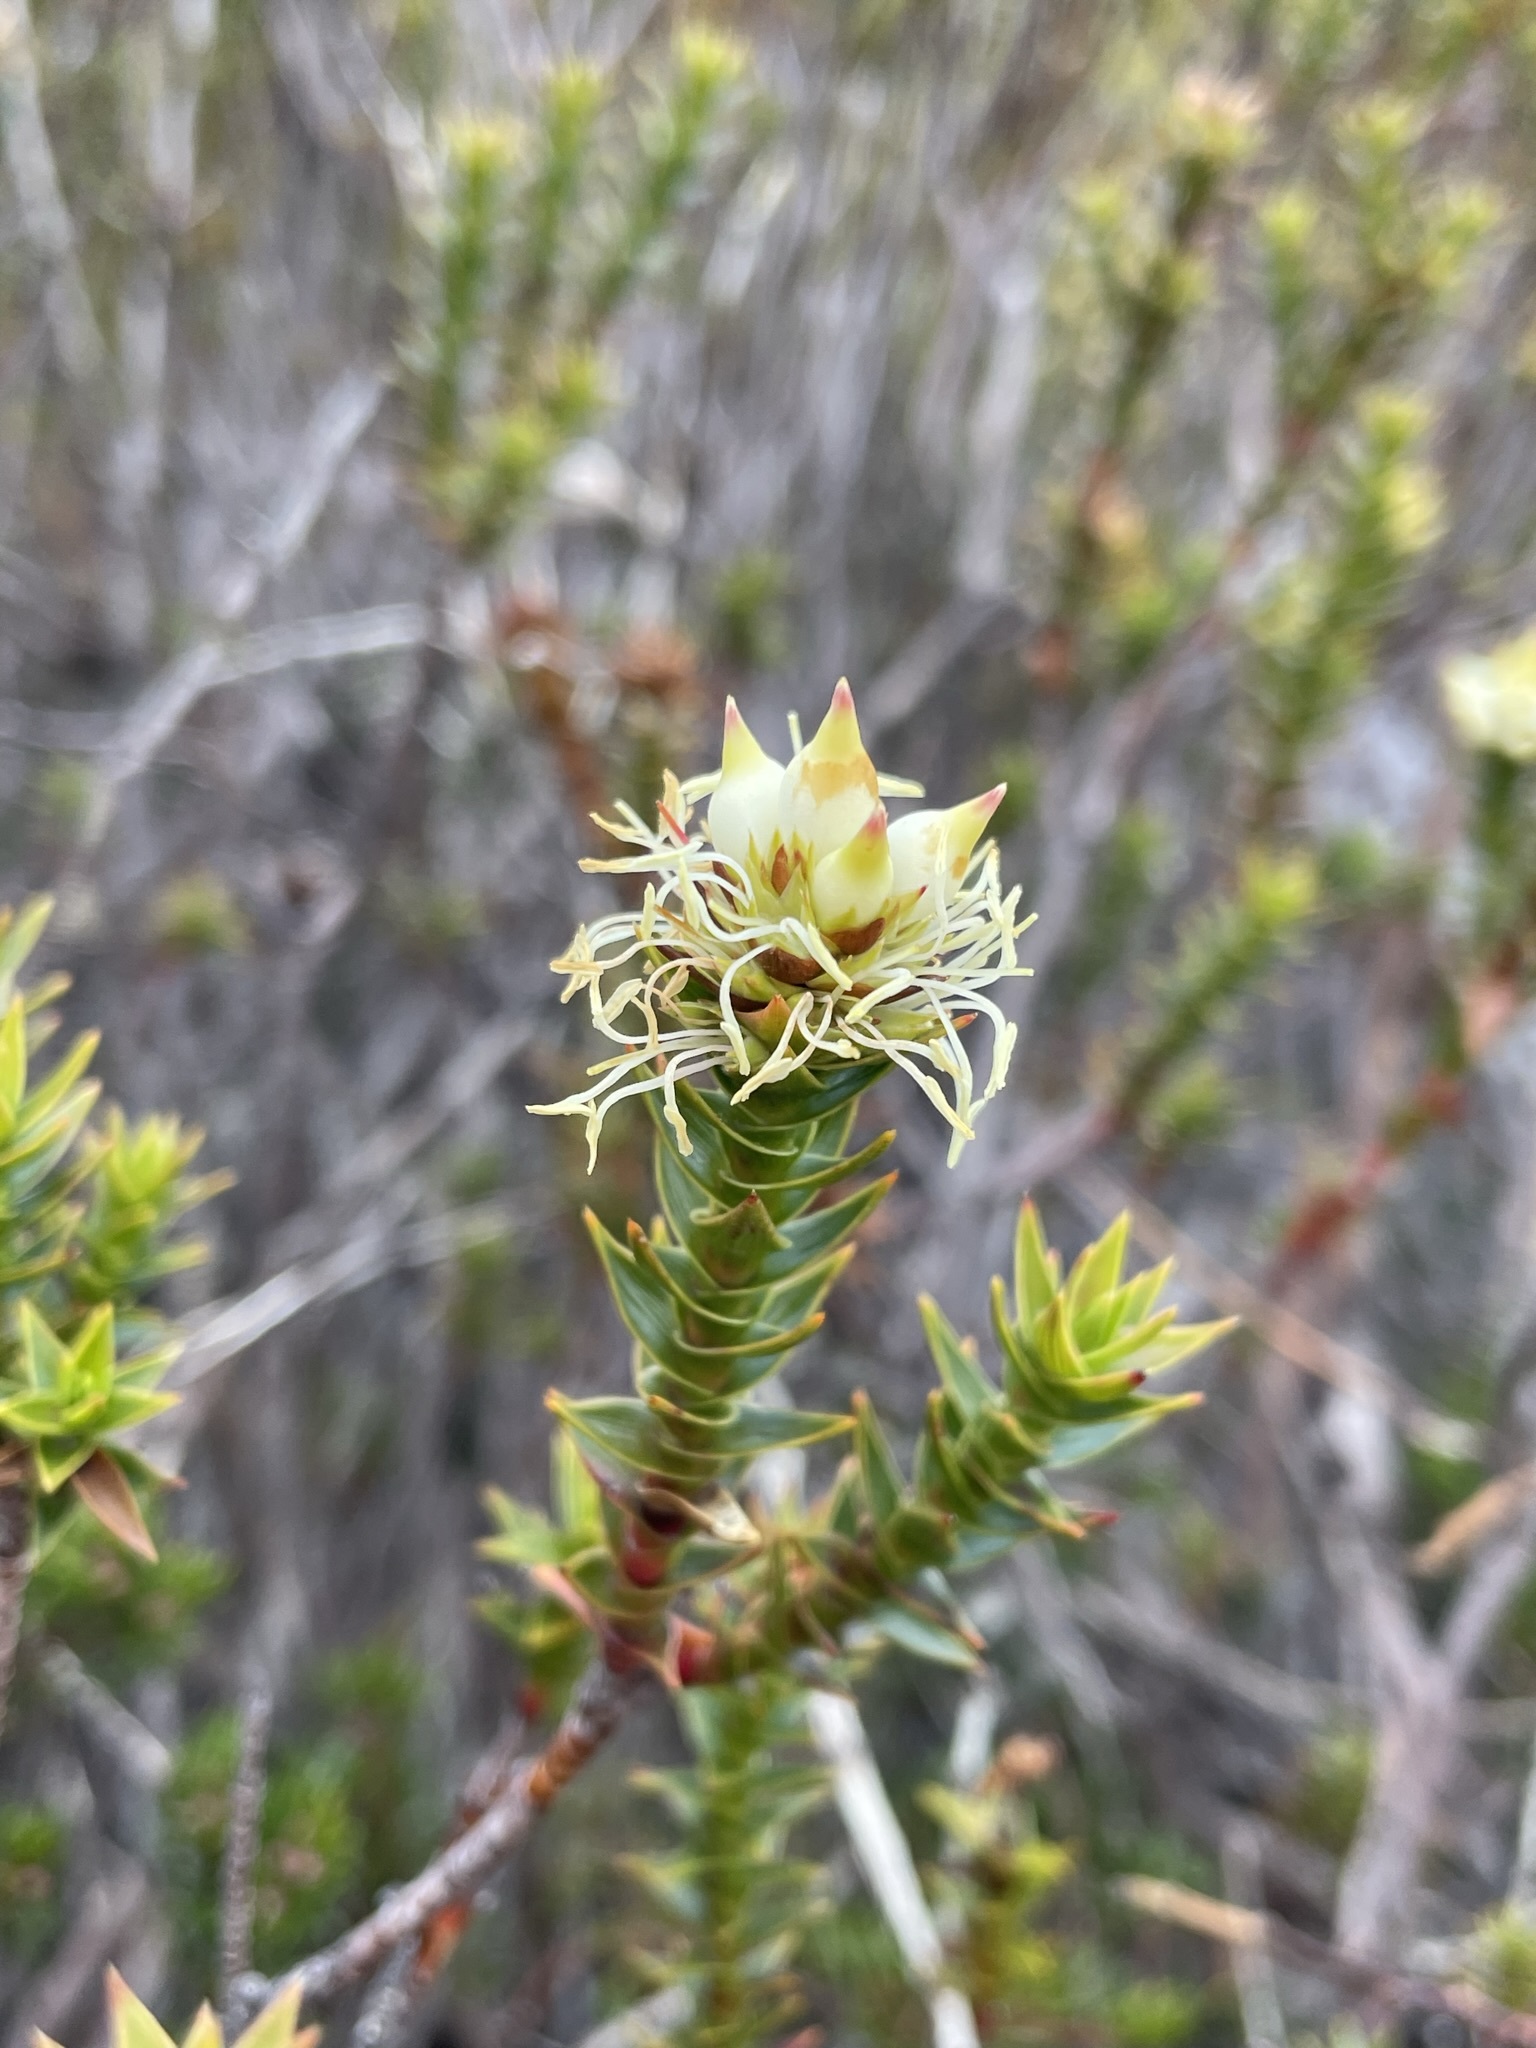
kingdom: Plantae
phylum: Tracheophyta
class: Magnoliopsida
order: Ericales
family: Ericaceae
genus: Dracophyllum
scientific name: Dracophyllum sprengelioides
